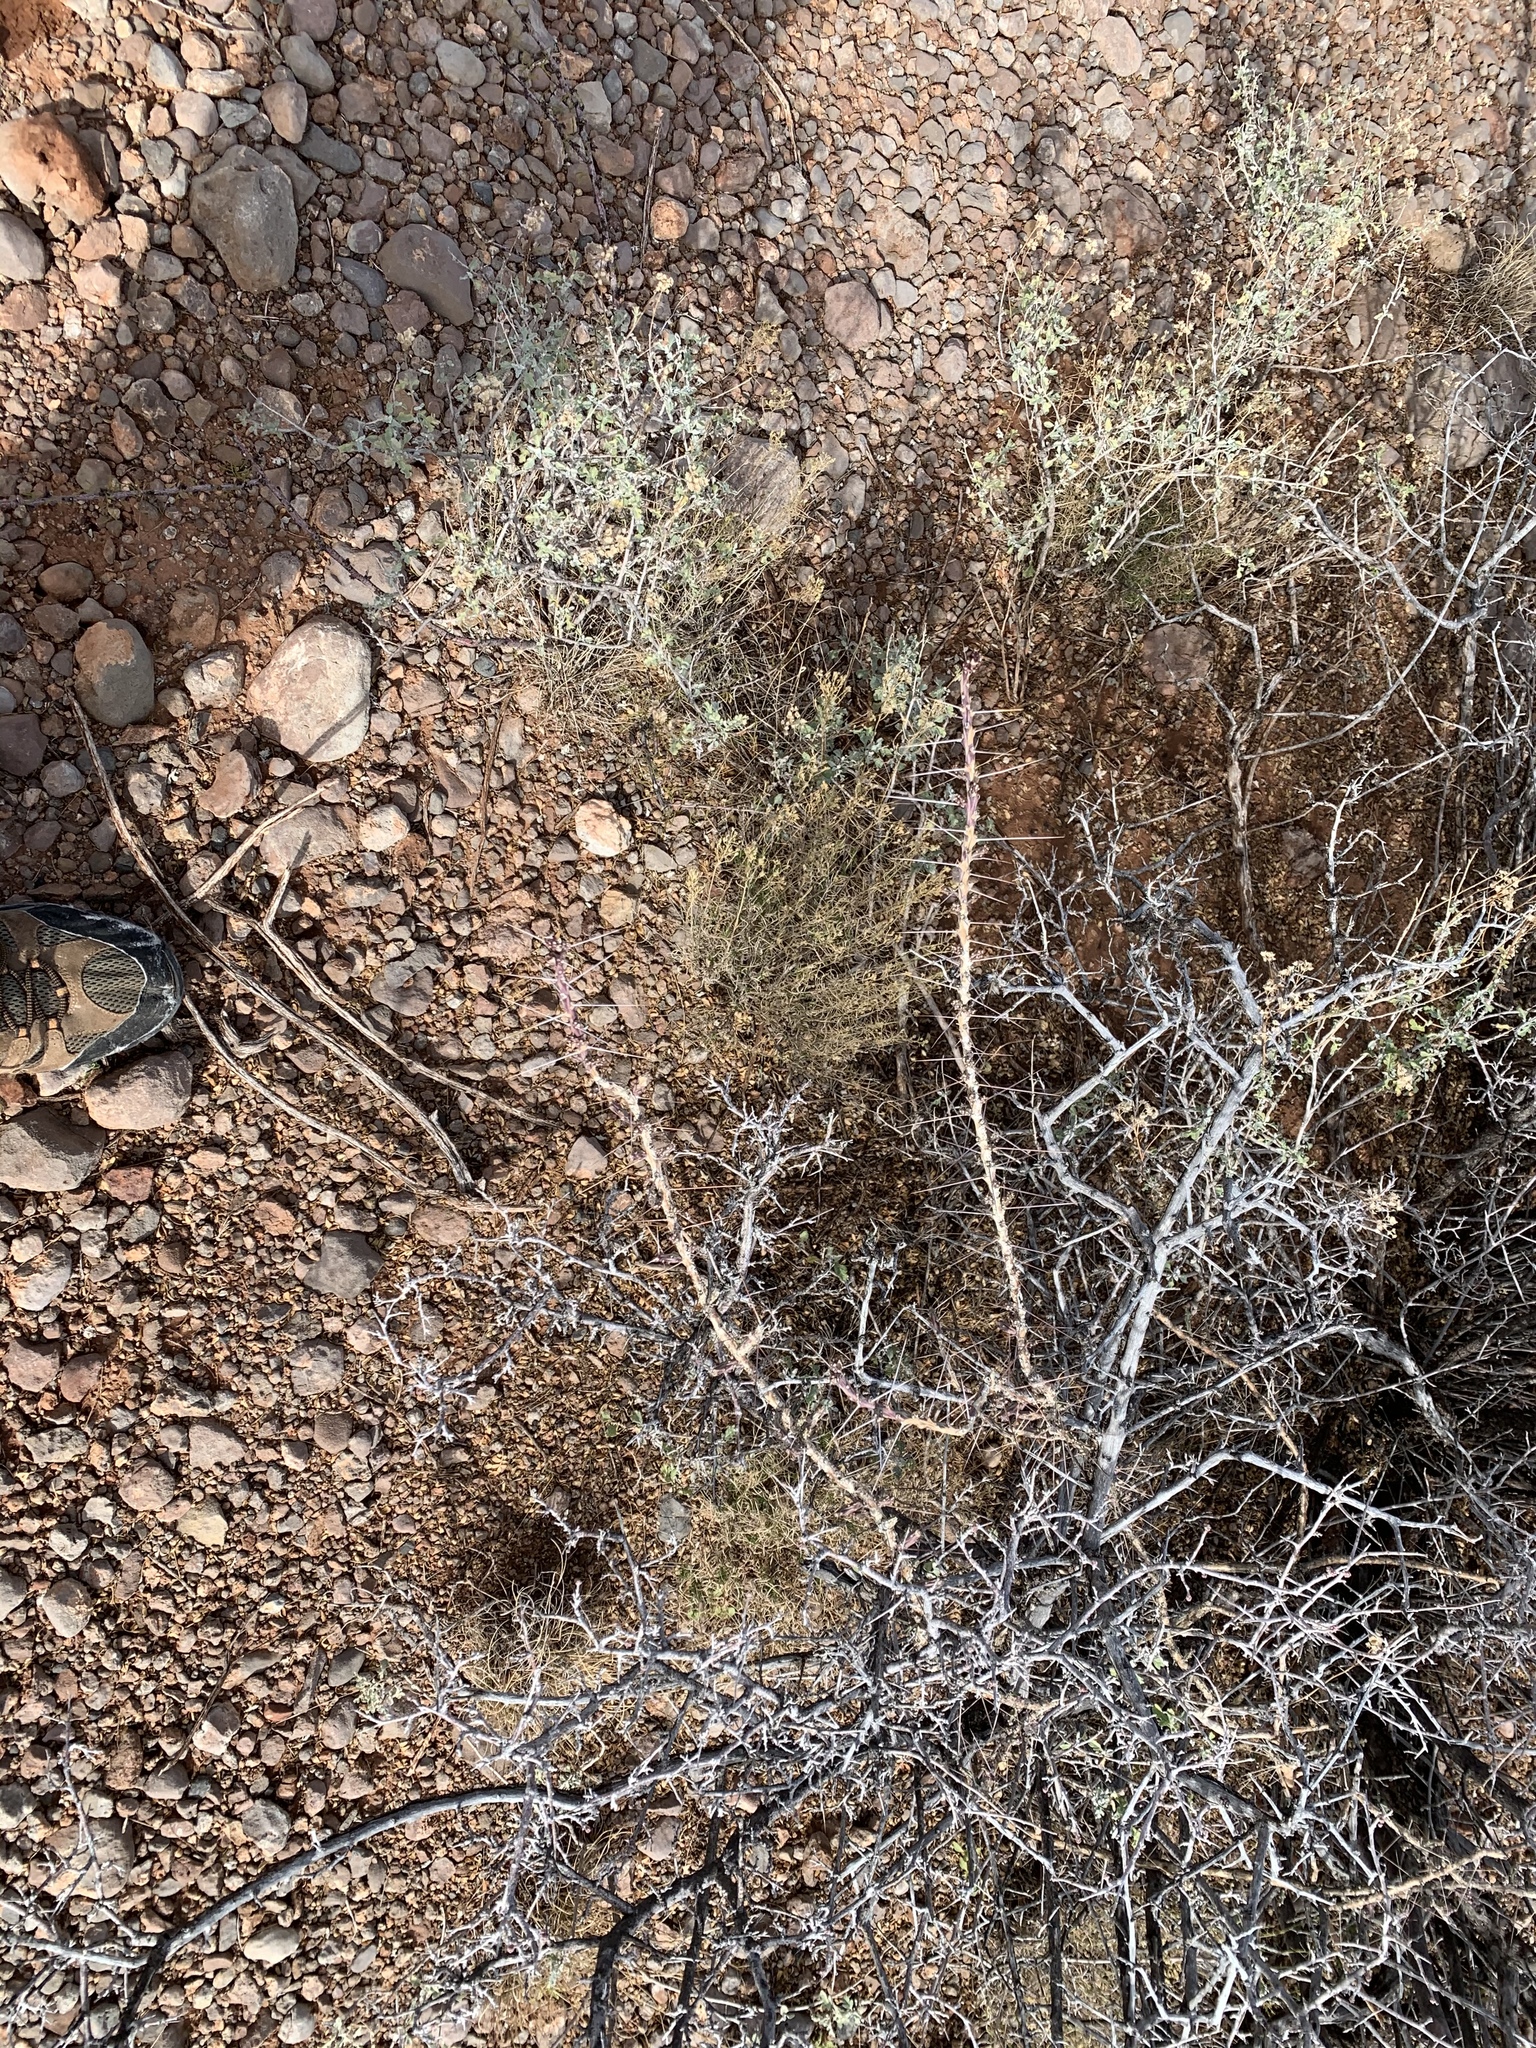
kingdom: Plantae
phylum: Tracheophyta
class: Magnoliopsida
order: Caryophyllales
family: Cactaceae
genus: Cylindropuntia
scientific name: Cylindropuntia leptocaulis
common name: Christmas cactus
